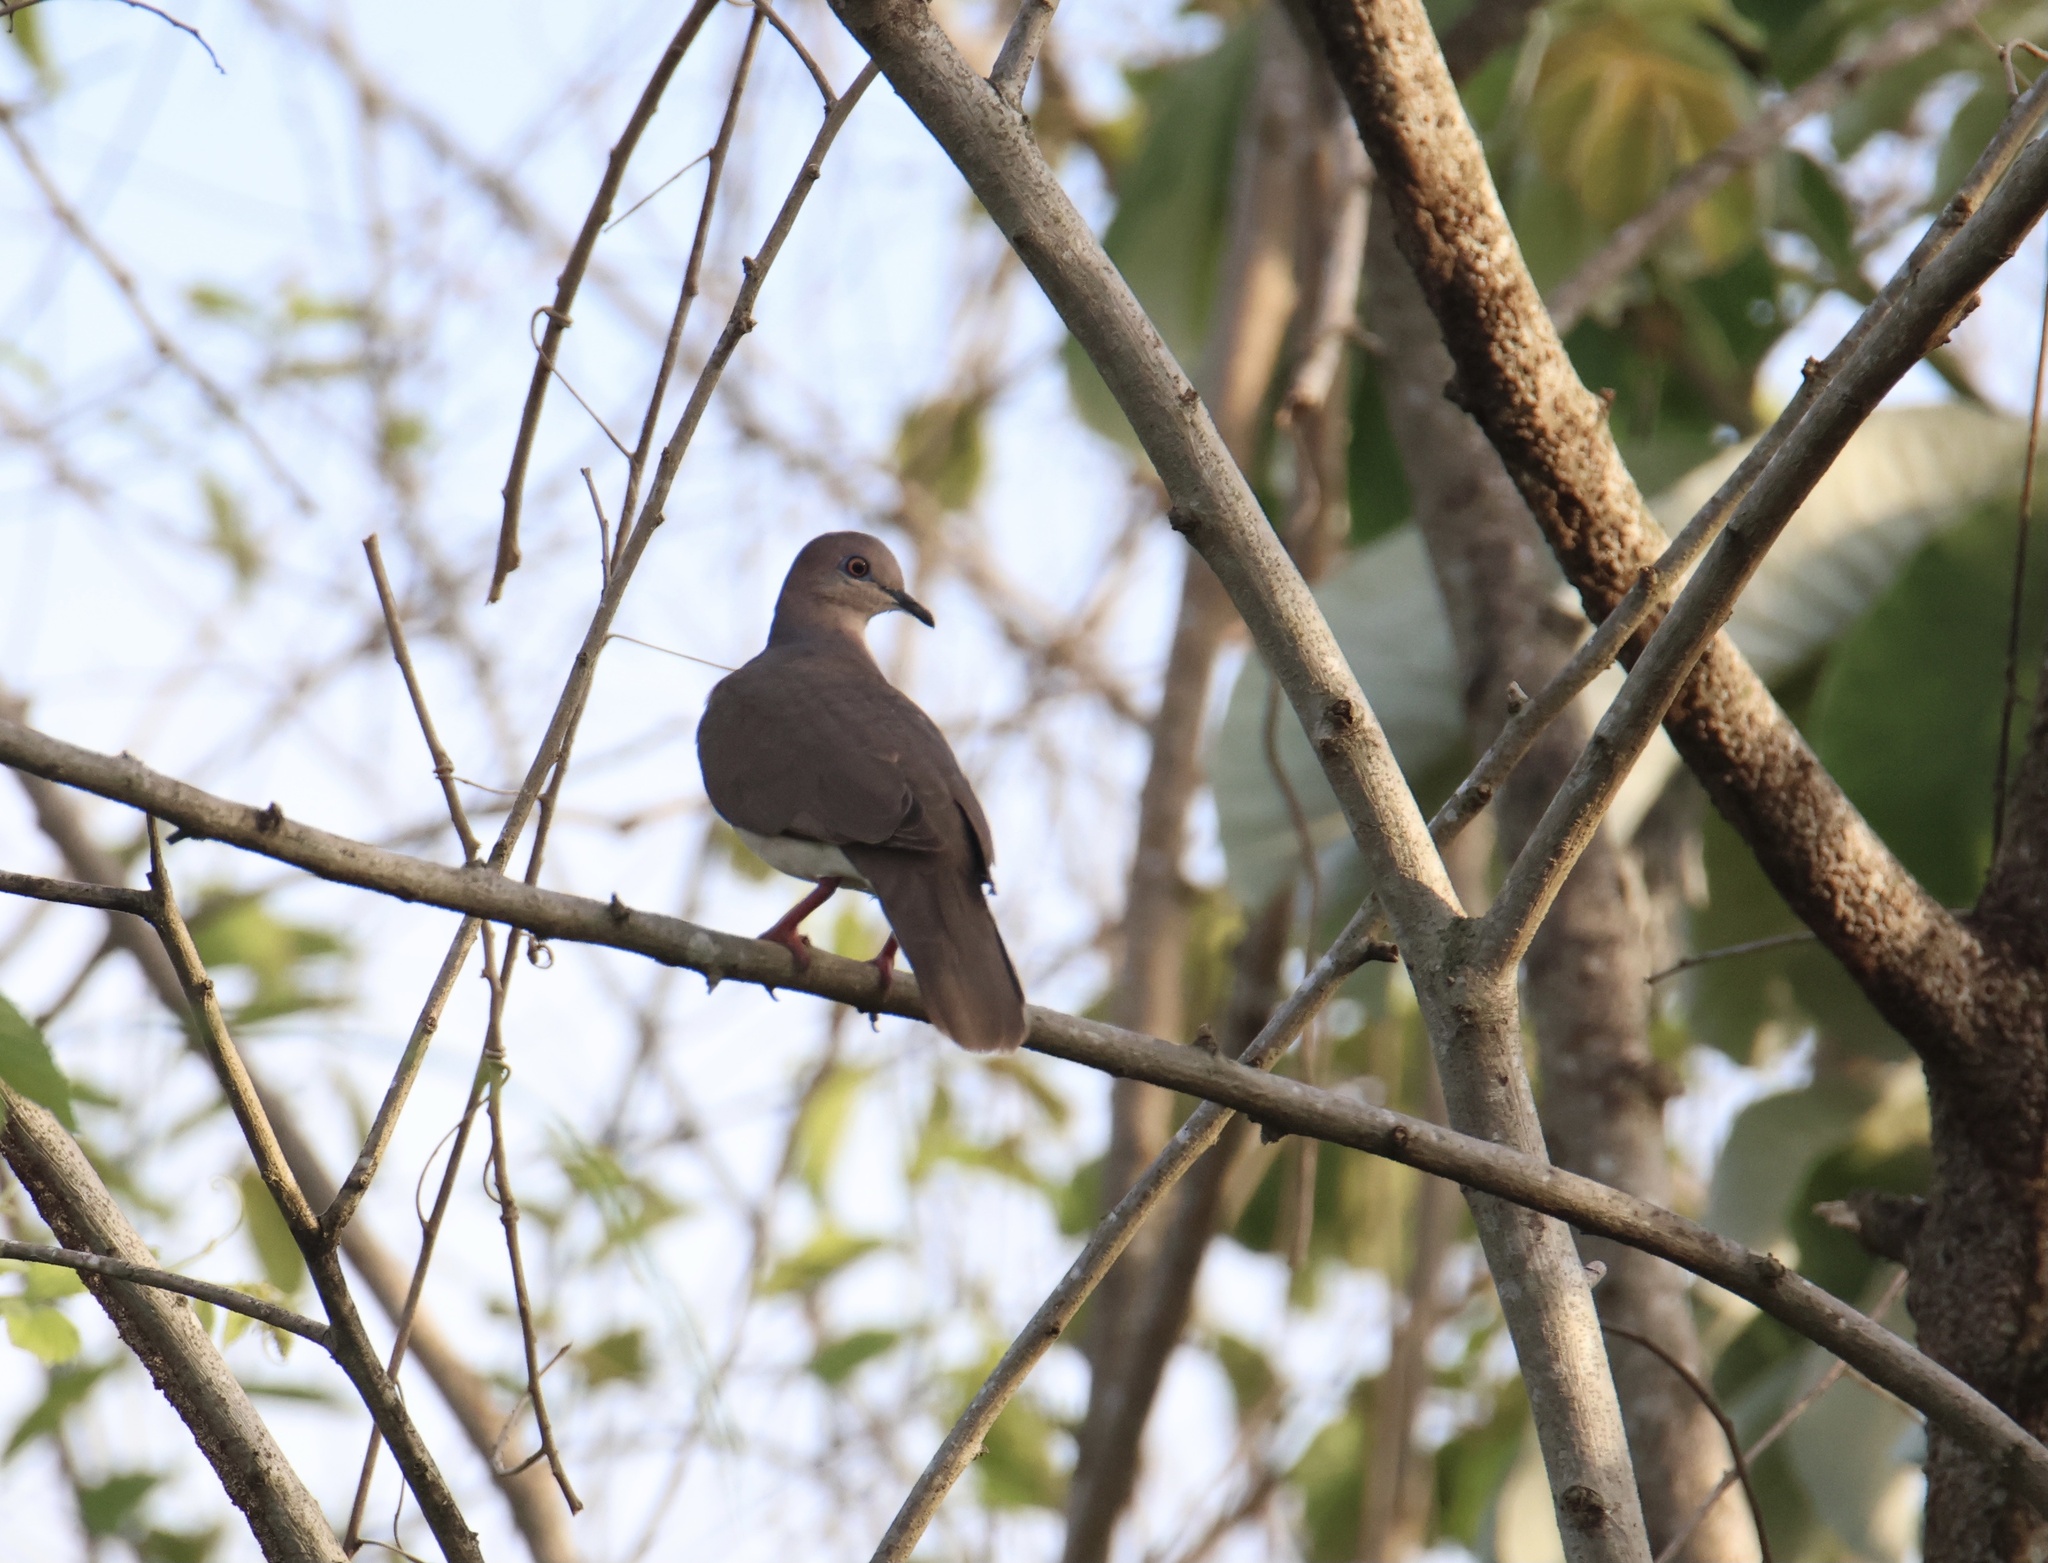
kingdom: Animalia
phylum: Chordata
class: Aves
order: Columbiformes
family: Columbidae
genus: Leptotila
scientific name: Leptotila verreauxi
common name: White-tipped dove
